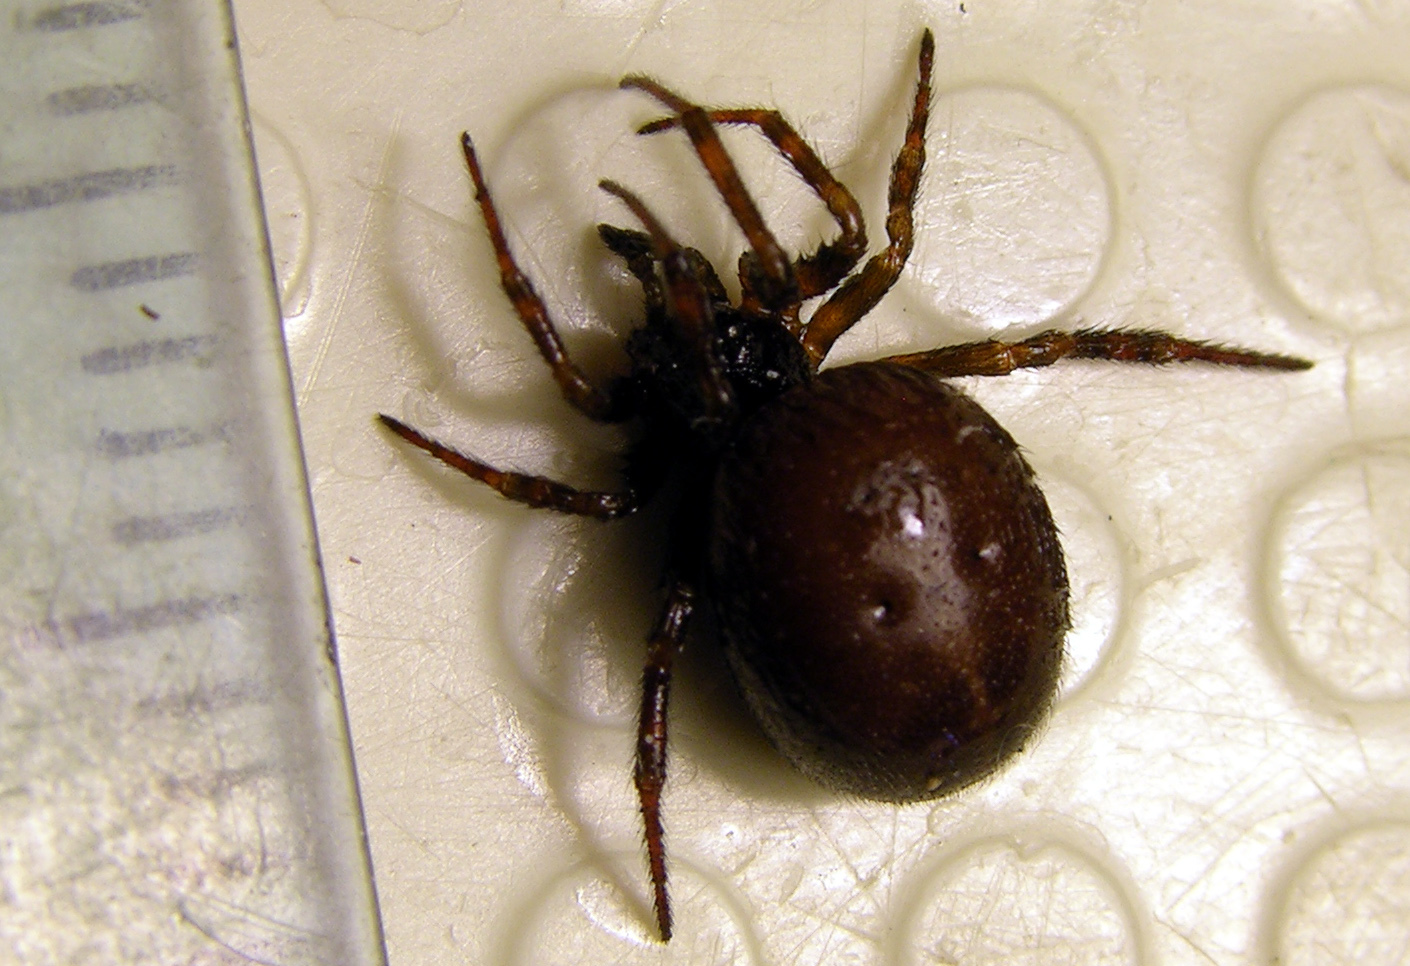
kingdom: Animalia
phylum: Arthropoda
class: Arachnida
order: Araneae
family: Theridiidae
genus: Steatoda
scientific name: Steatoda bipunctata
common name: False widow
